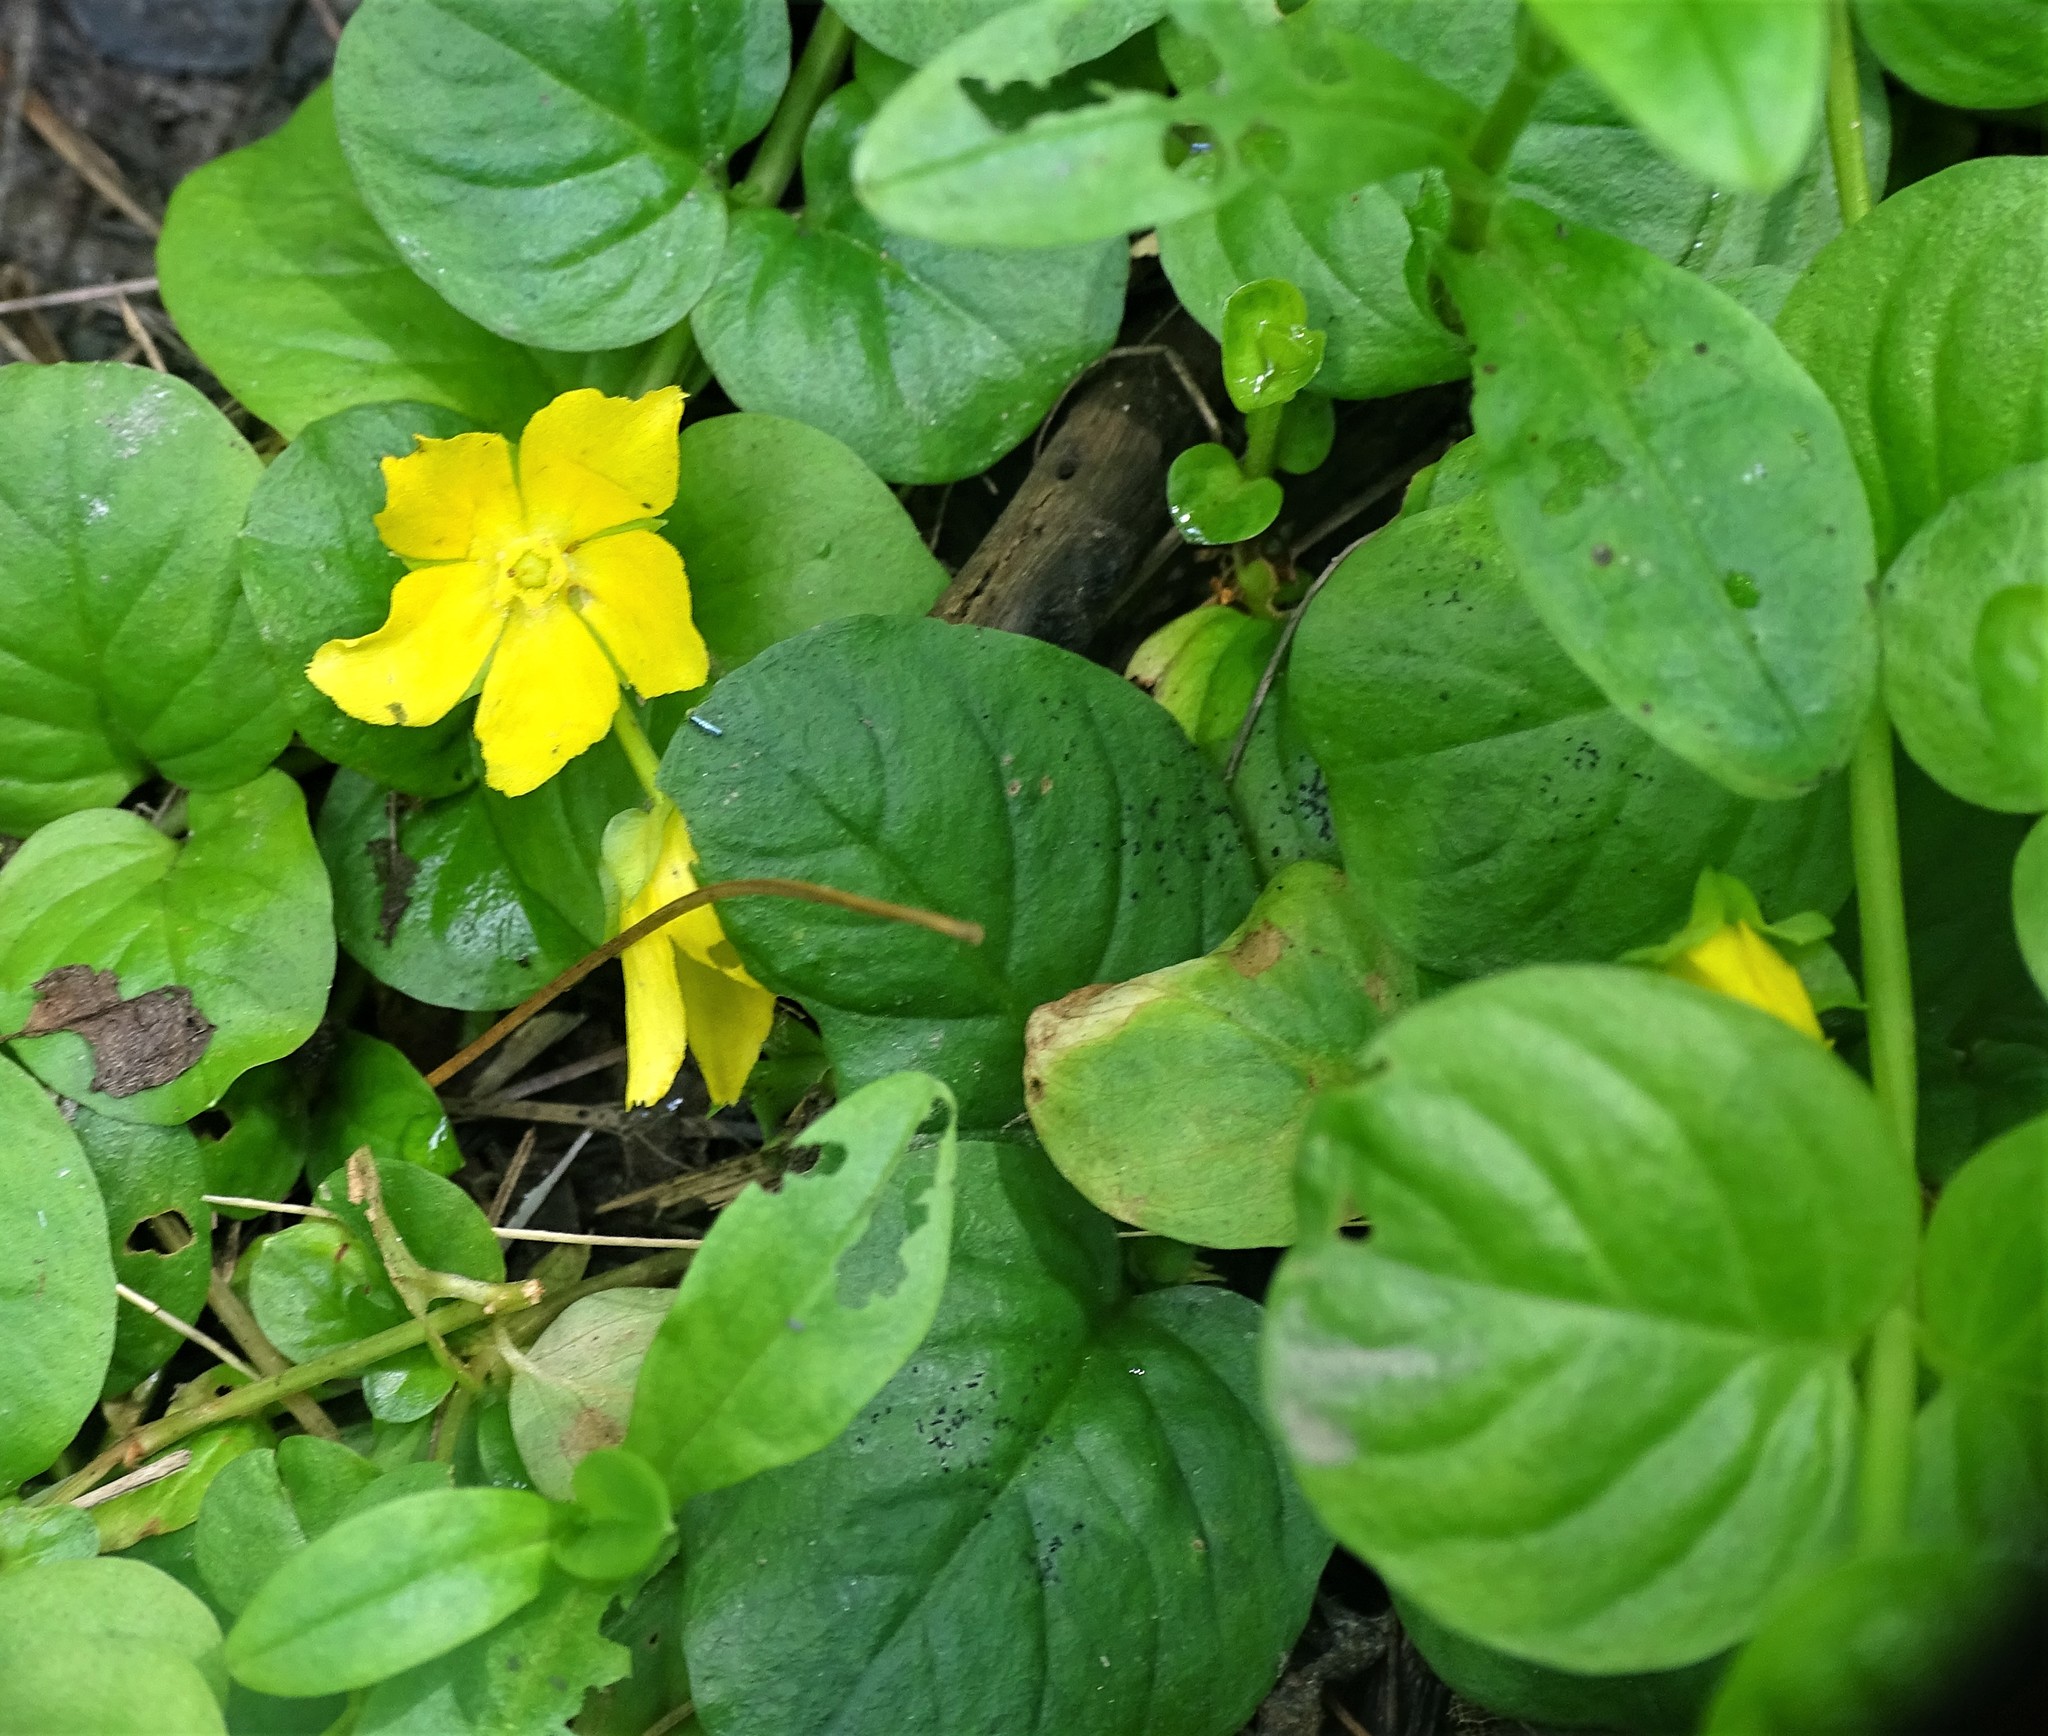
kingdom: Plantae
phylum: Tracheophyta
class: Magnoliopsida
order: Ericales
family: Primulaceae
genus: Lysimachia
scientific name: Lysimachia nummularia
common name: Moneywort
